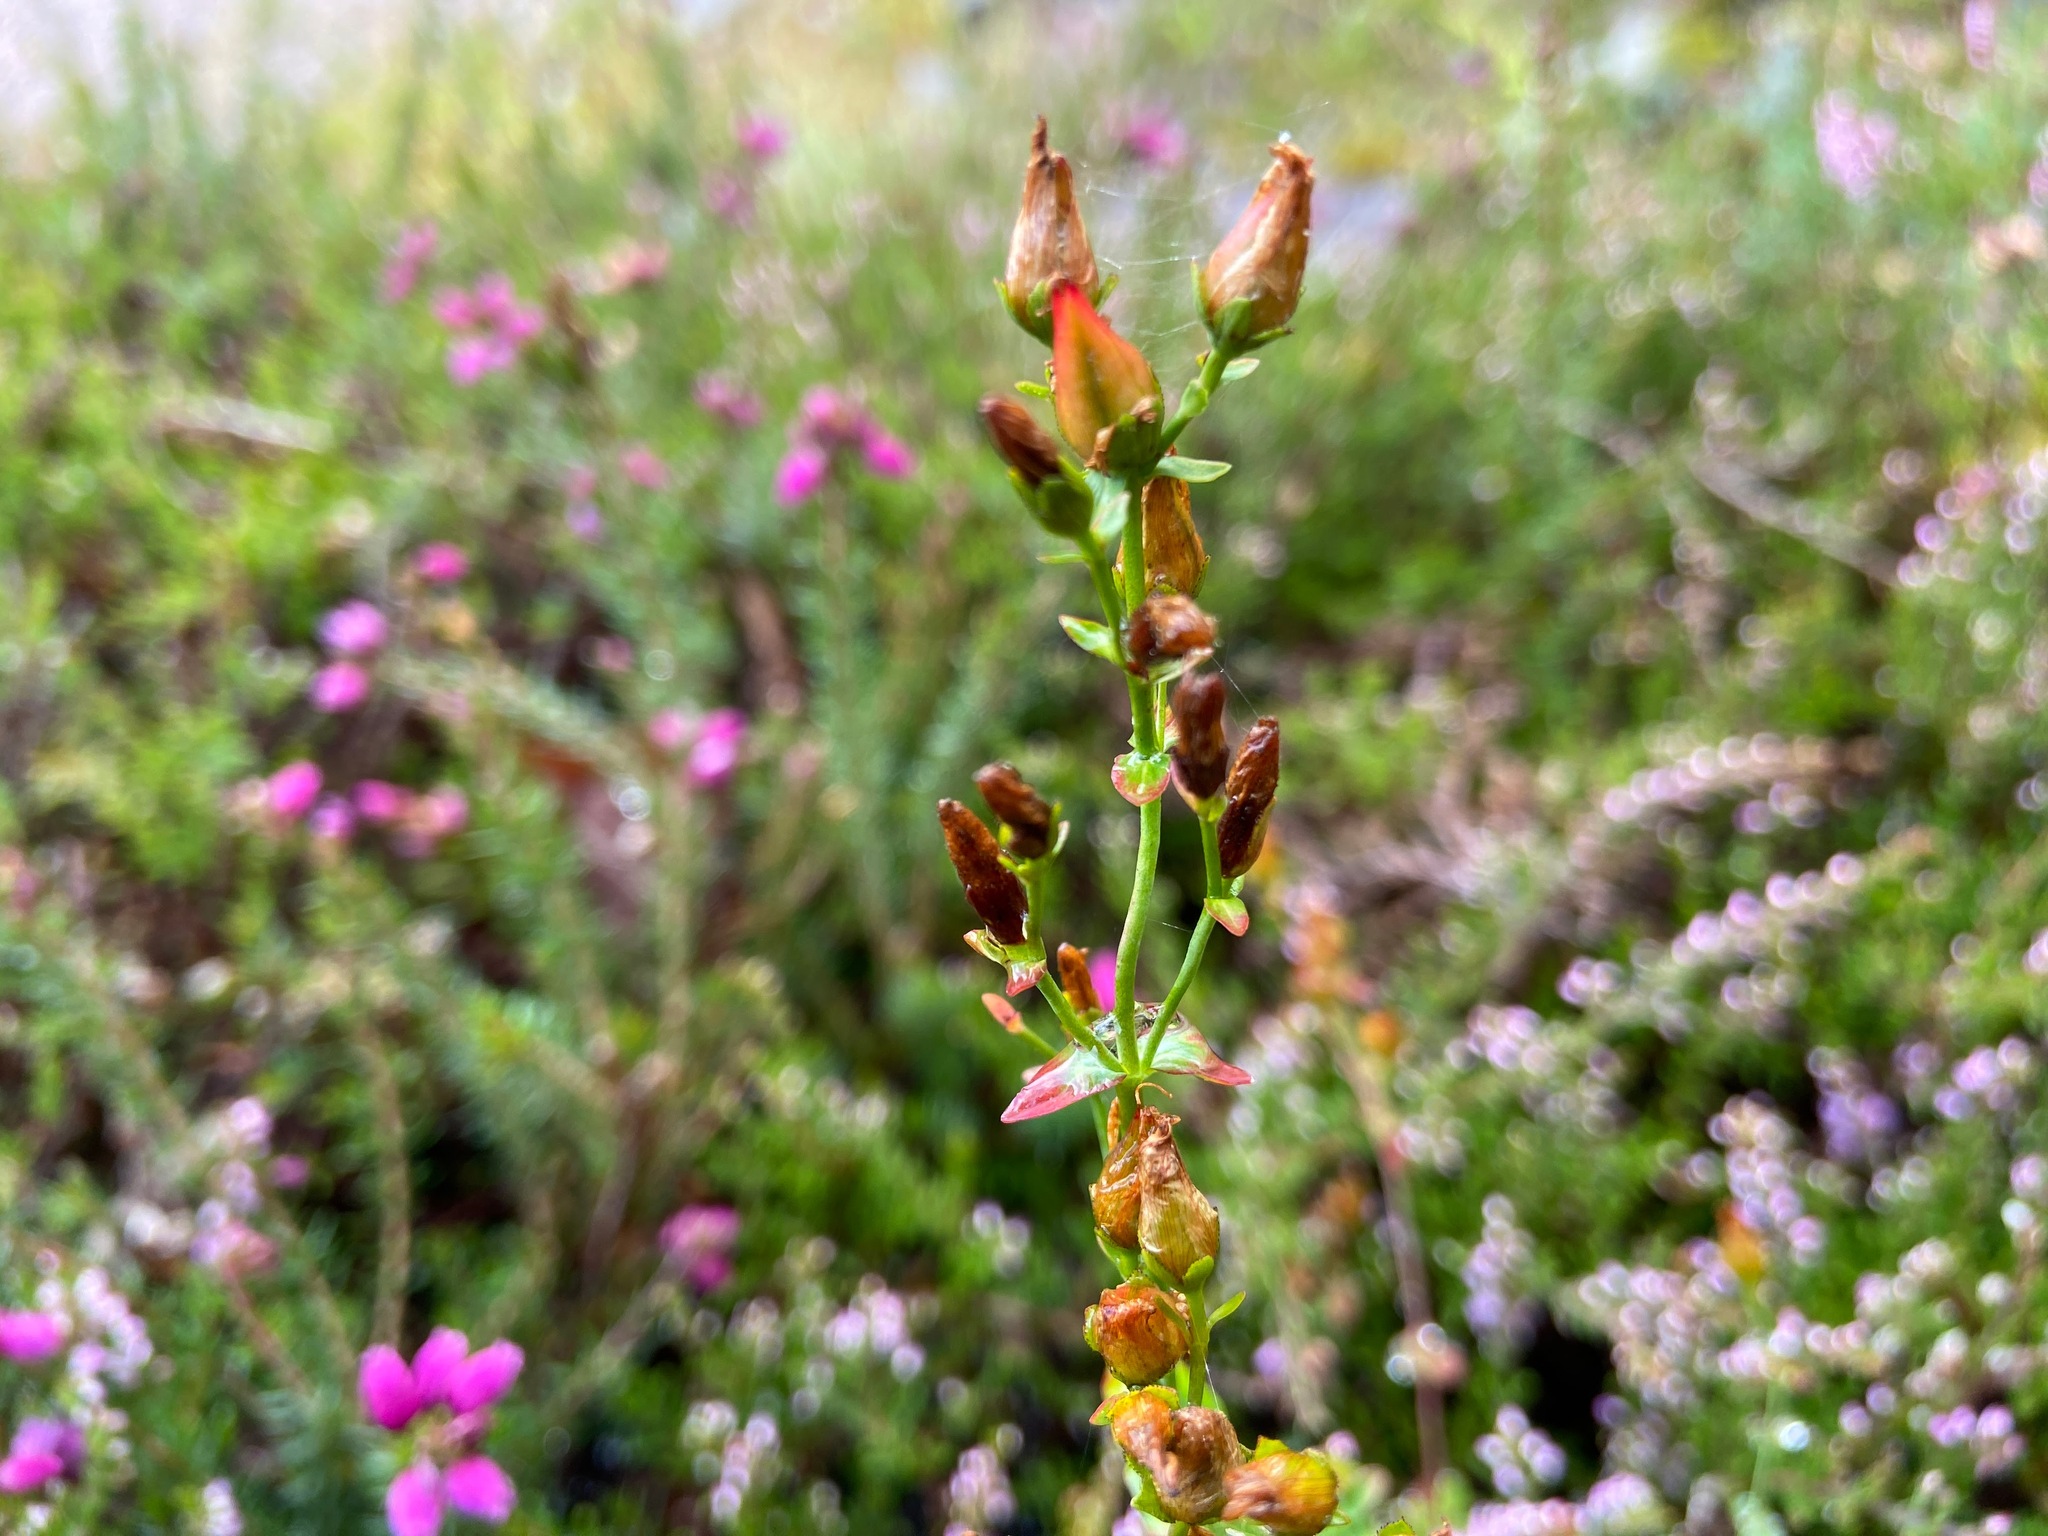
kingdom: Plantae
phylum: Tracheophyta
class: Magnoliopsida
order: Malpighiales
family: Hypericaceae
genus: Hypericum
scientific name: Hypericum pulchrum
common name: Slender st. john's-wort
